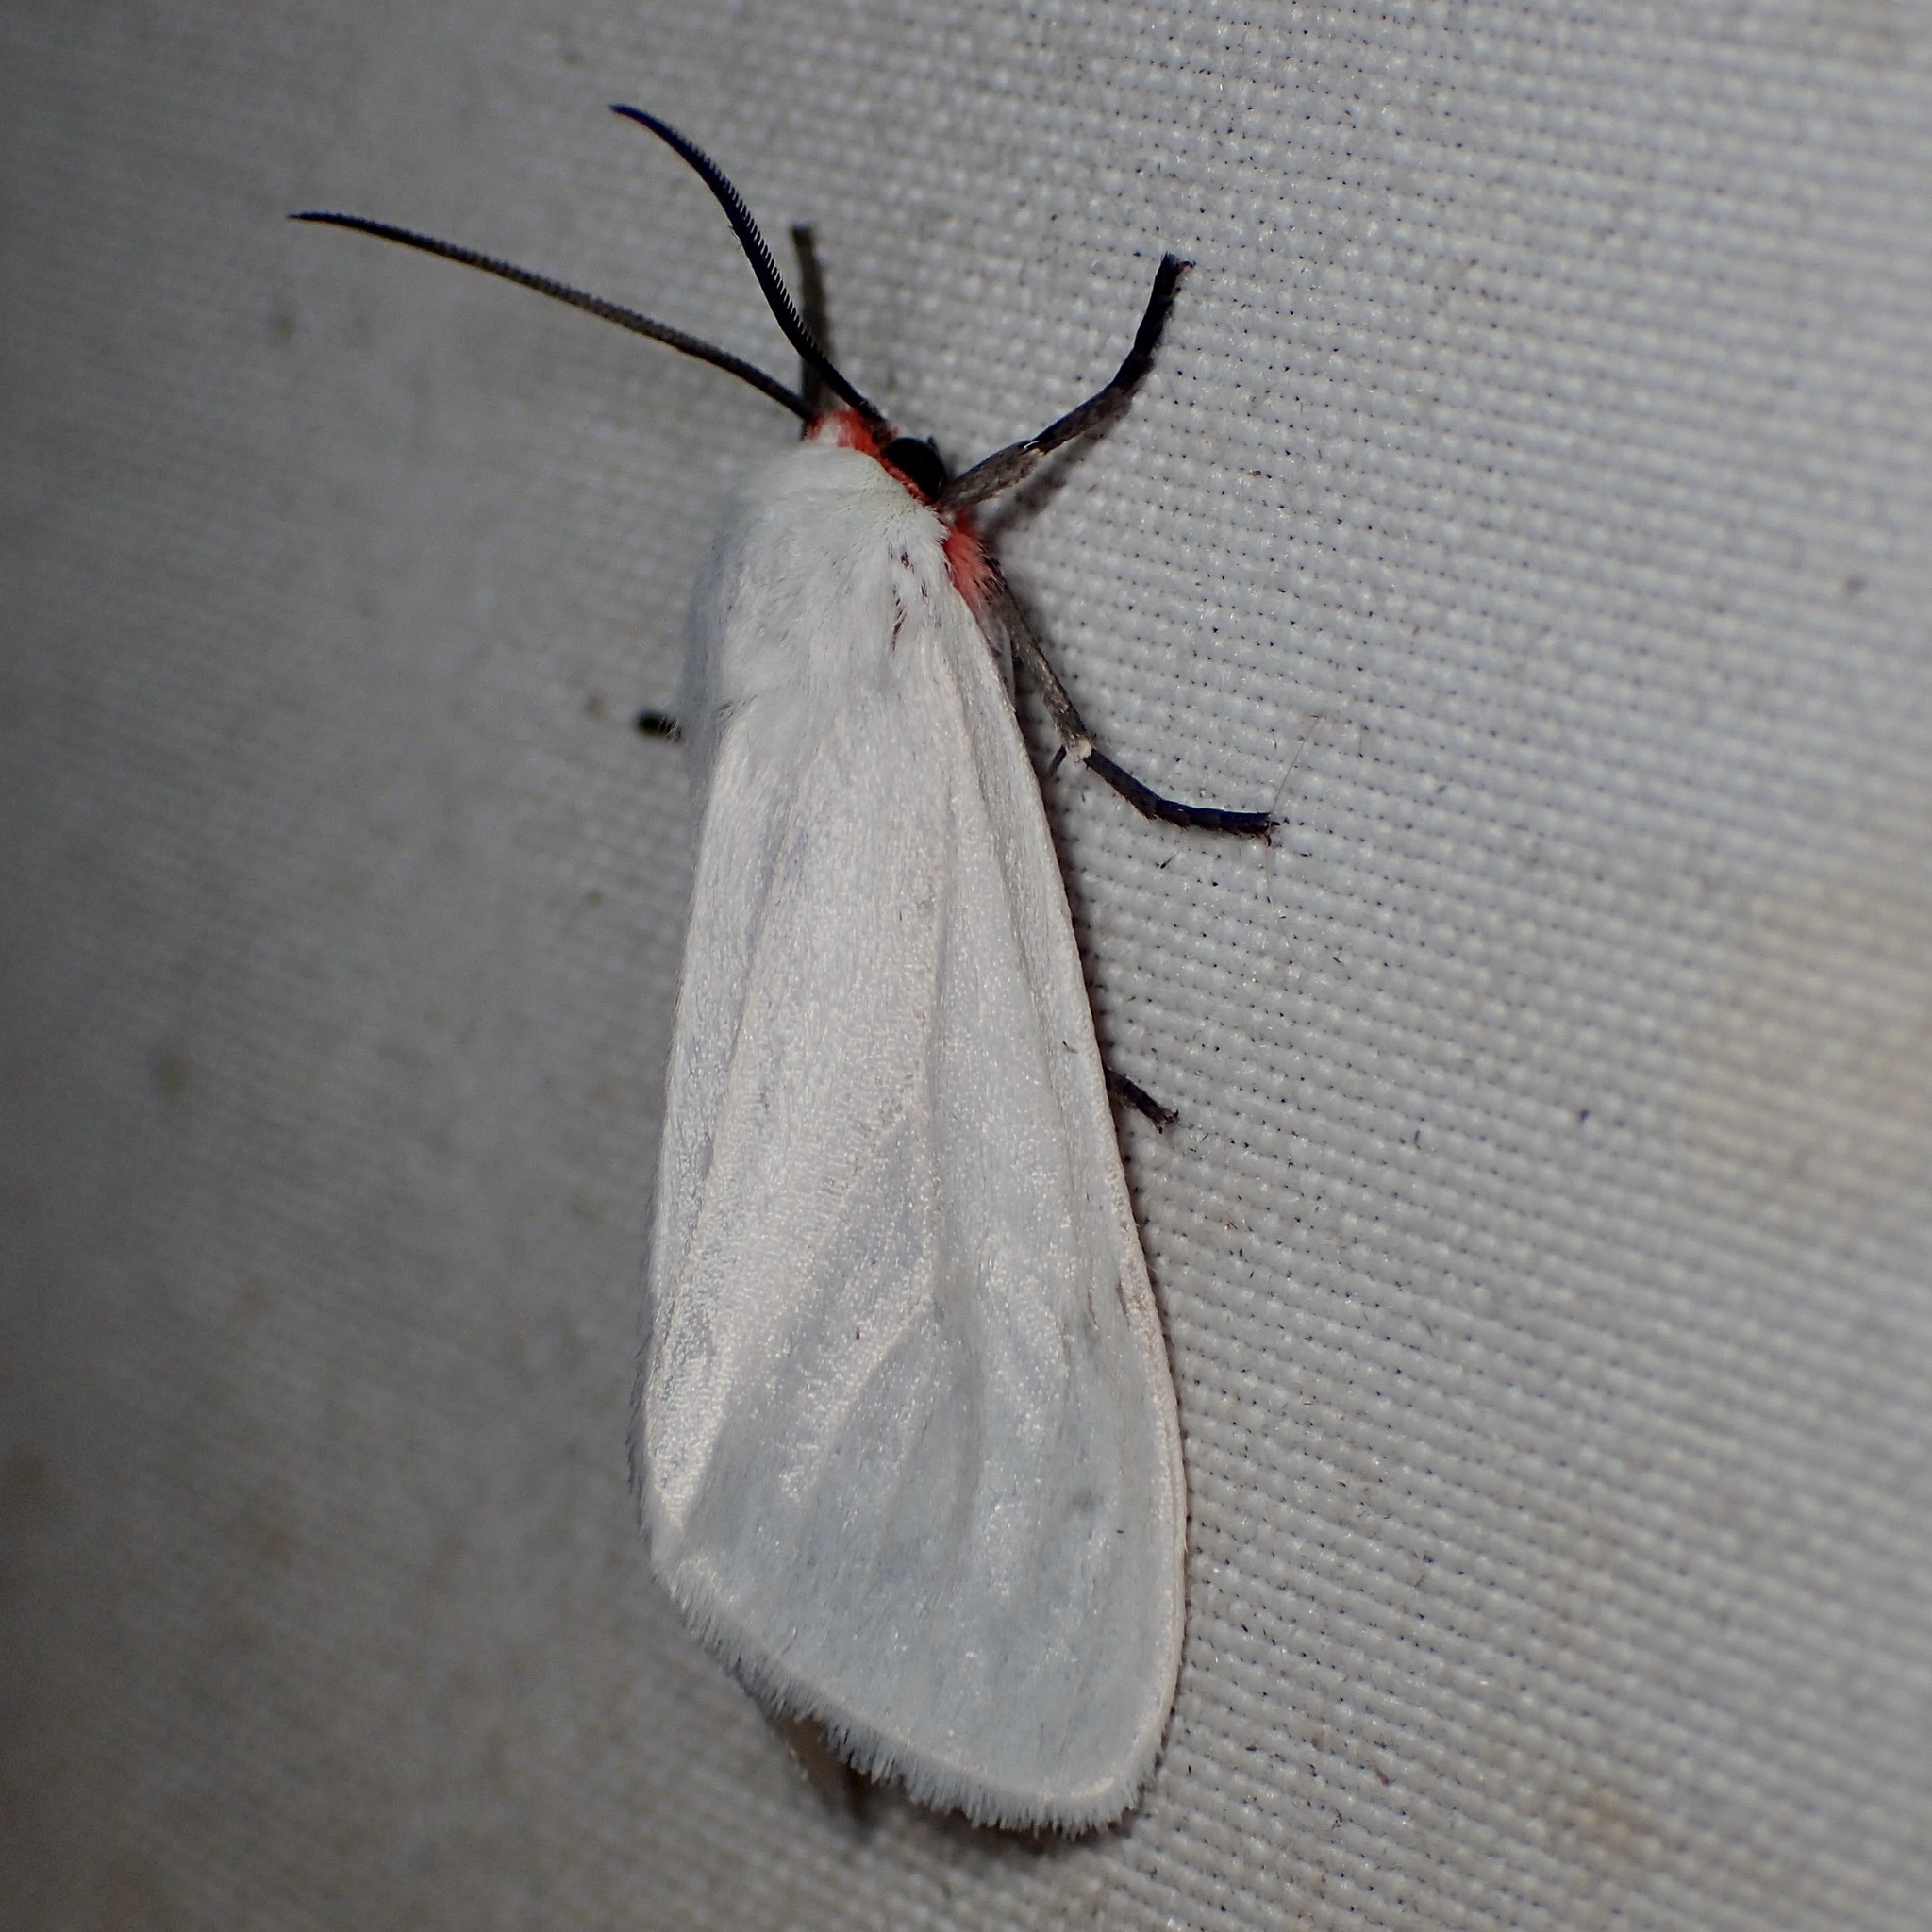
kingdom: Animalia
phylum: Arthropoda
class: Insecta
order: Lepidoptera
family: Erebidae
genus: Pygarctia
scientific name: Pygarctia roseicapitis
